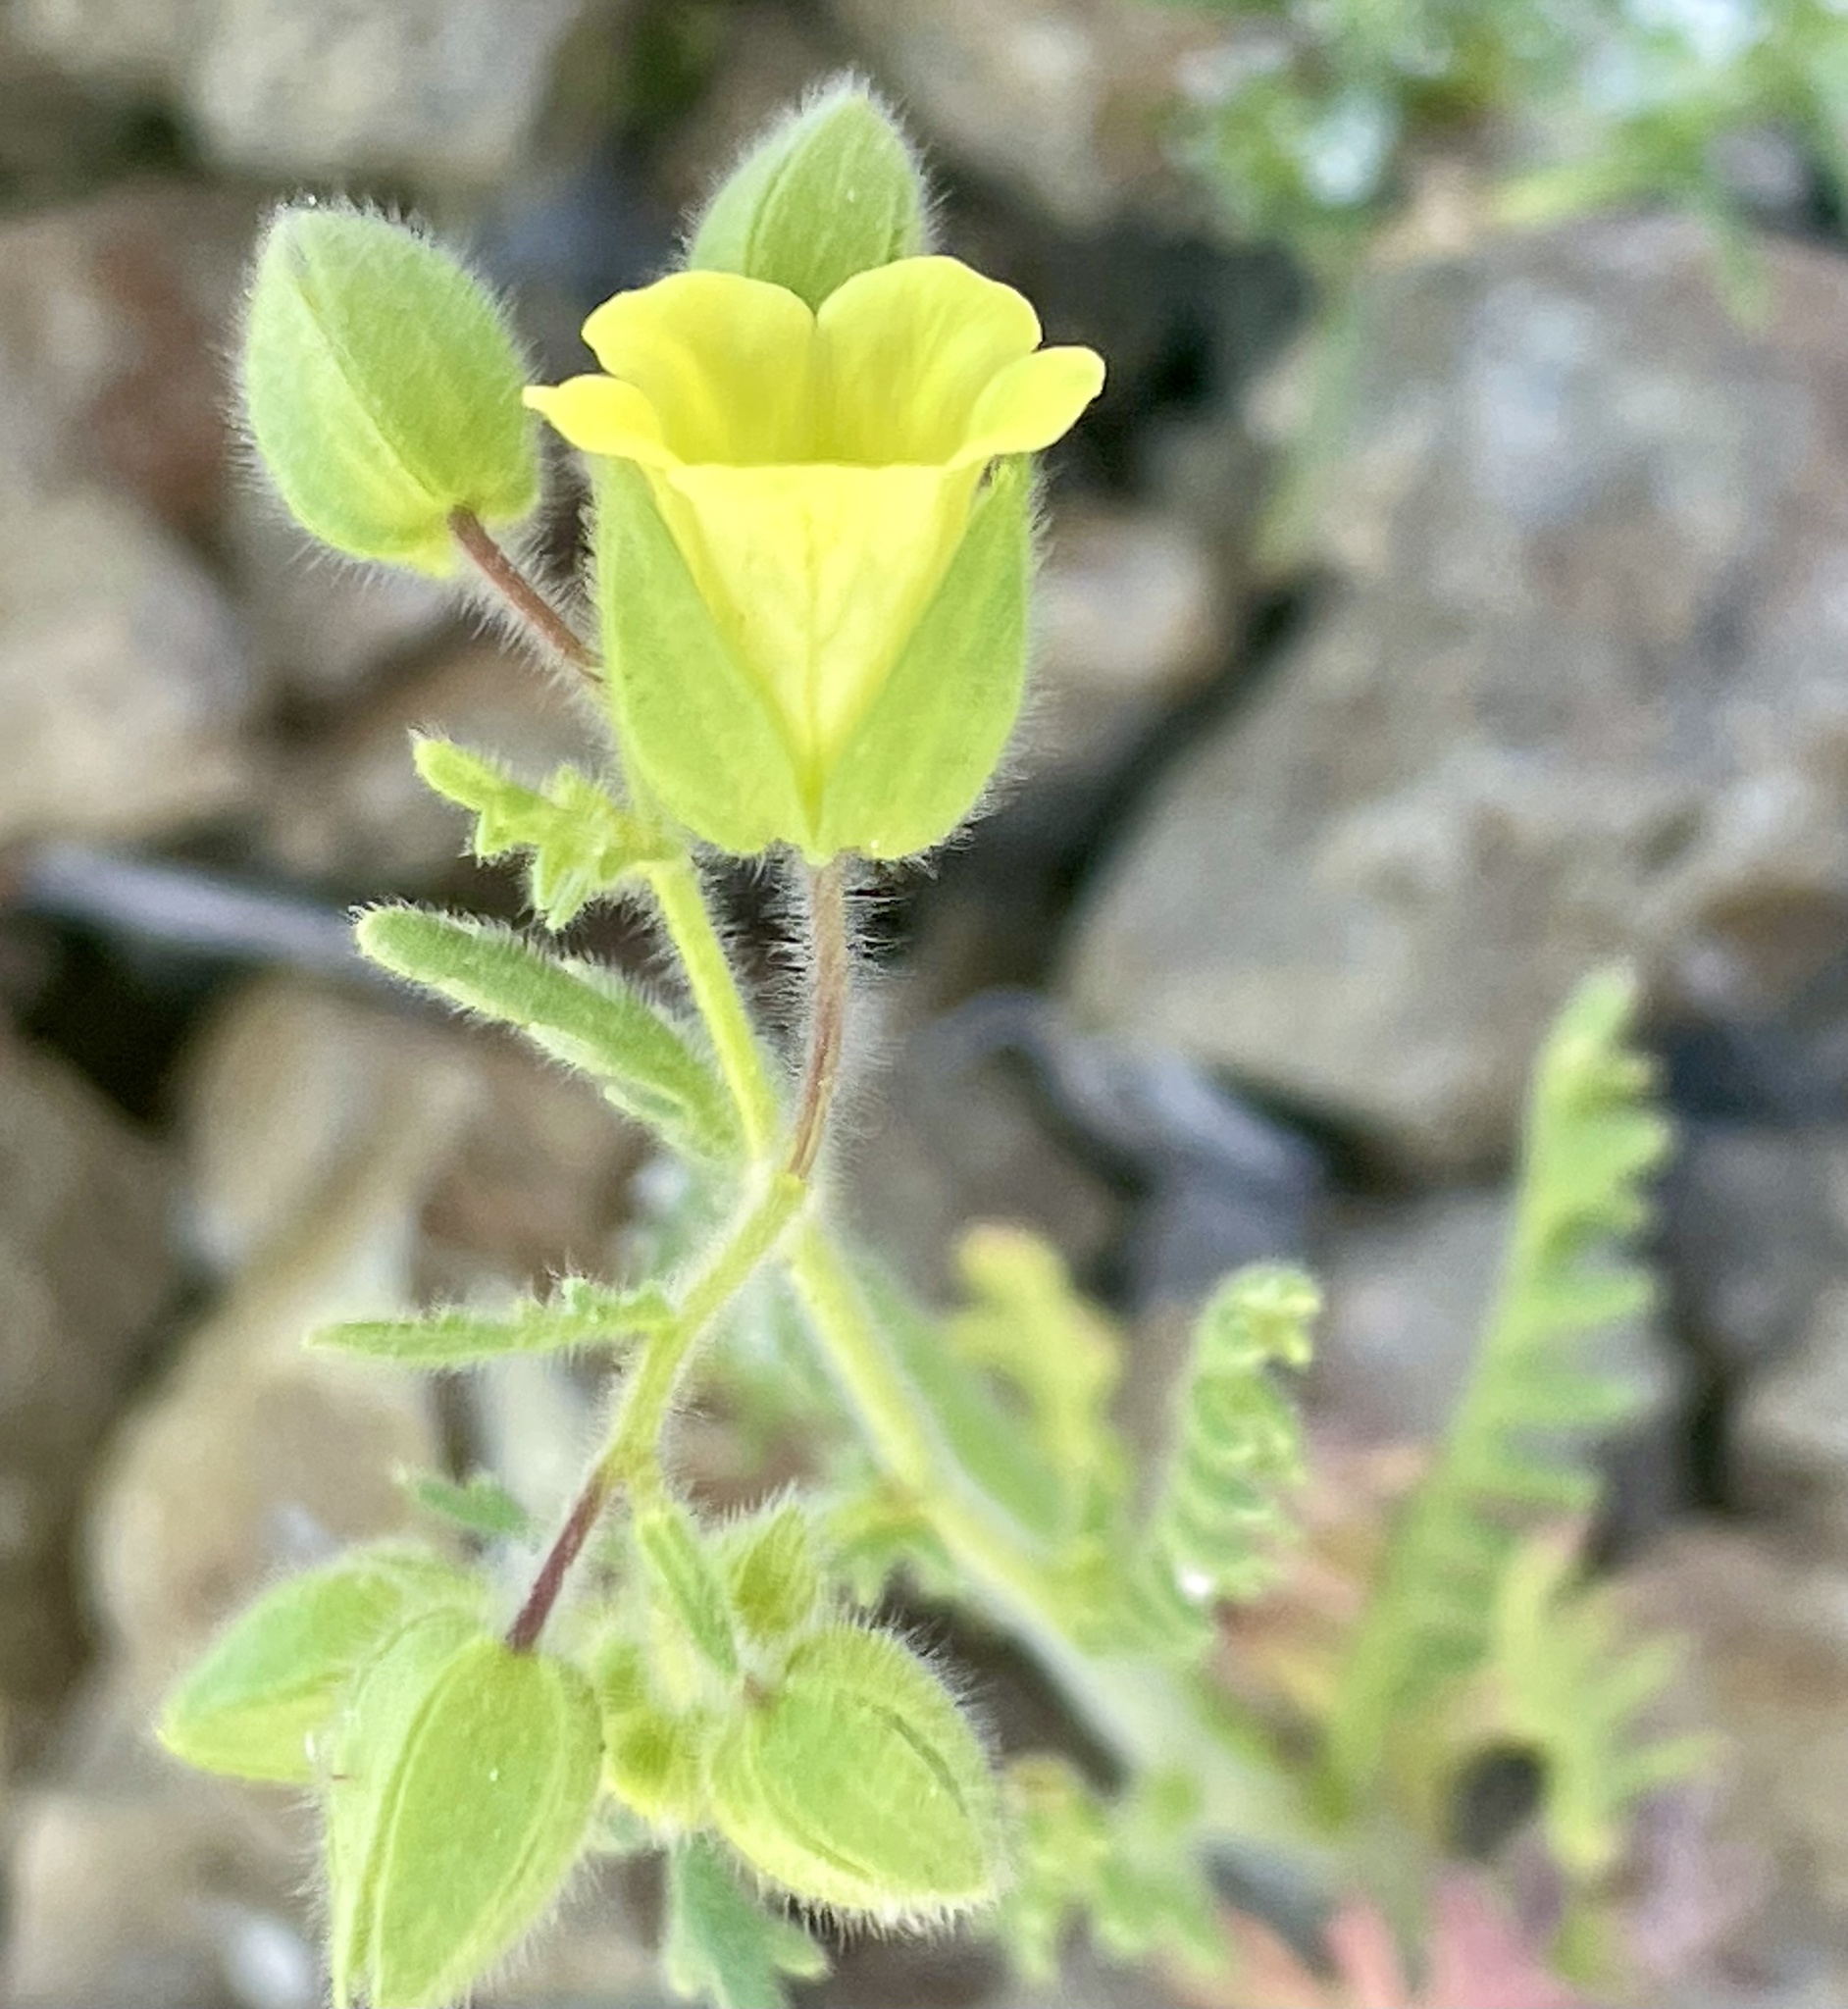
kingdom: Plantae
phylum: Tracheophyta
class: Magnoliopsida
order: Boraginales
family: Hydrophyllaceae
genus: Emmenanthe
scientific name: Emmenanthe penduliflora
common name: Whispering-bells
